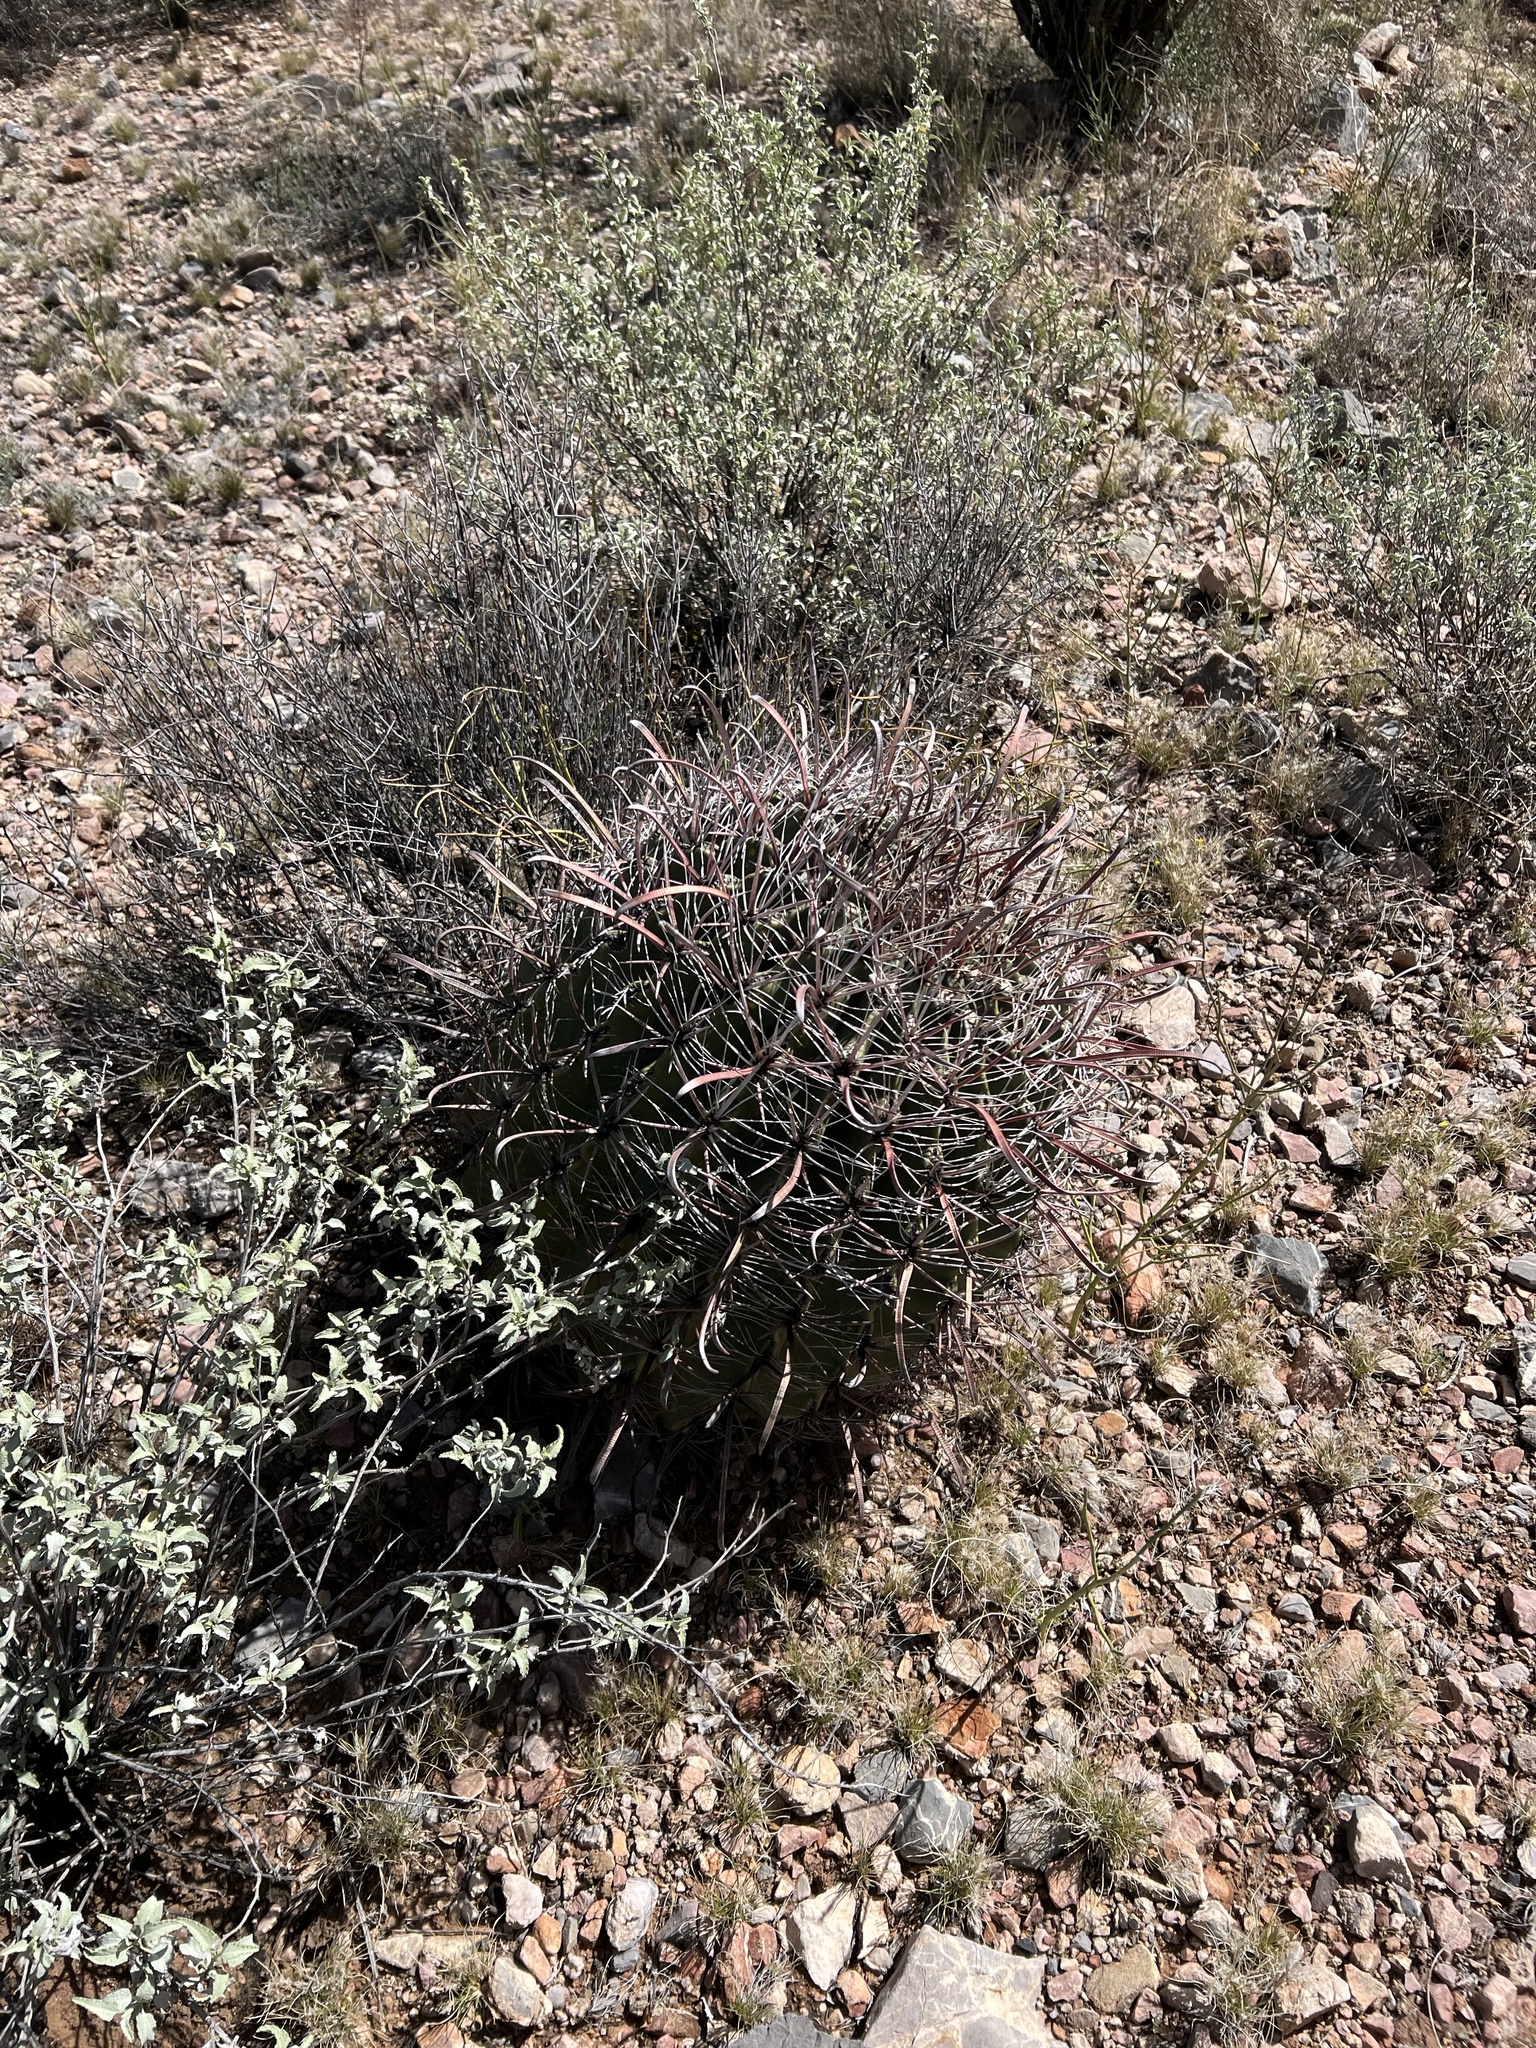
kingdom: Plantae
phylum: Tracheophyta
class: Magnoliopsida
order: Caryophyllales
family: Cactaceae
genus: Ferocactus
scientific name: Ferocactus wislizeni
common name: Candy barrel cactus
